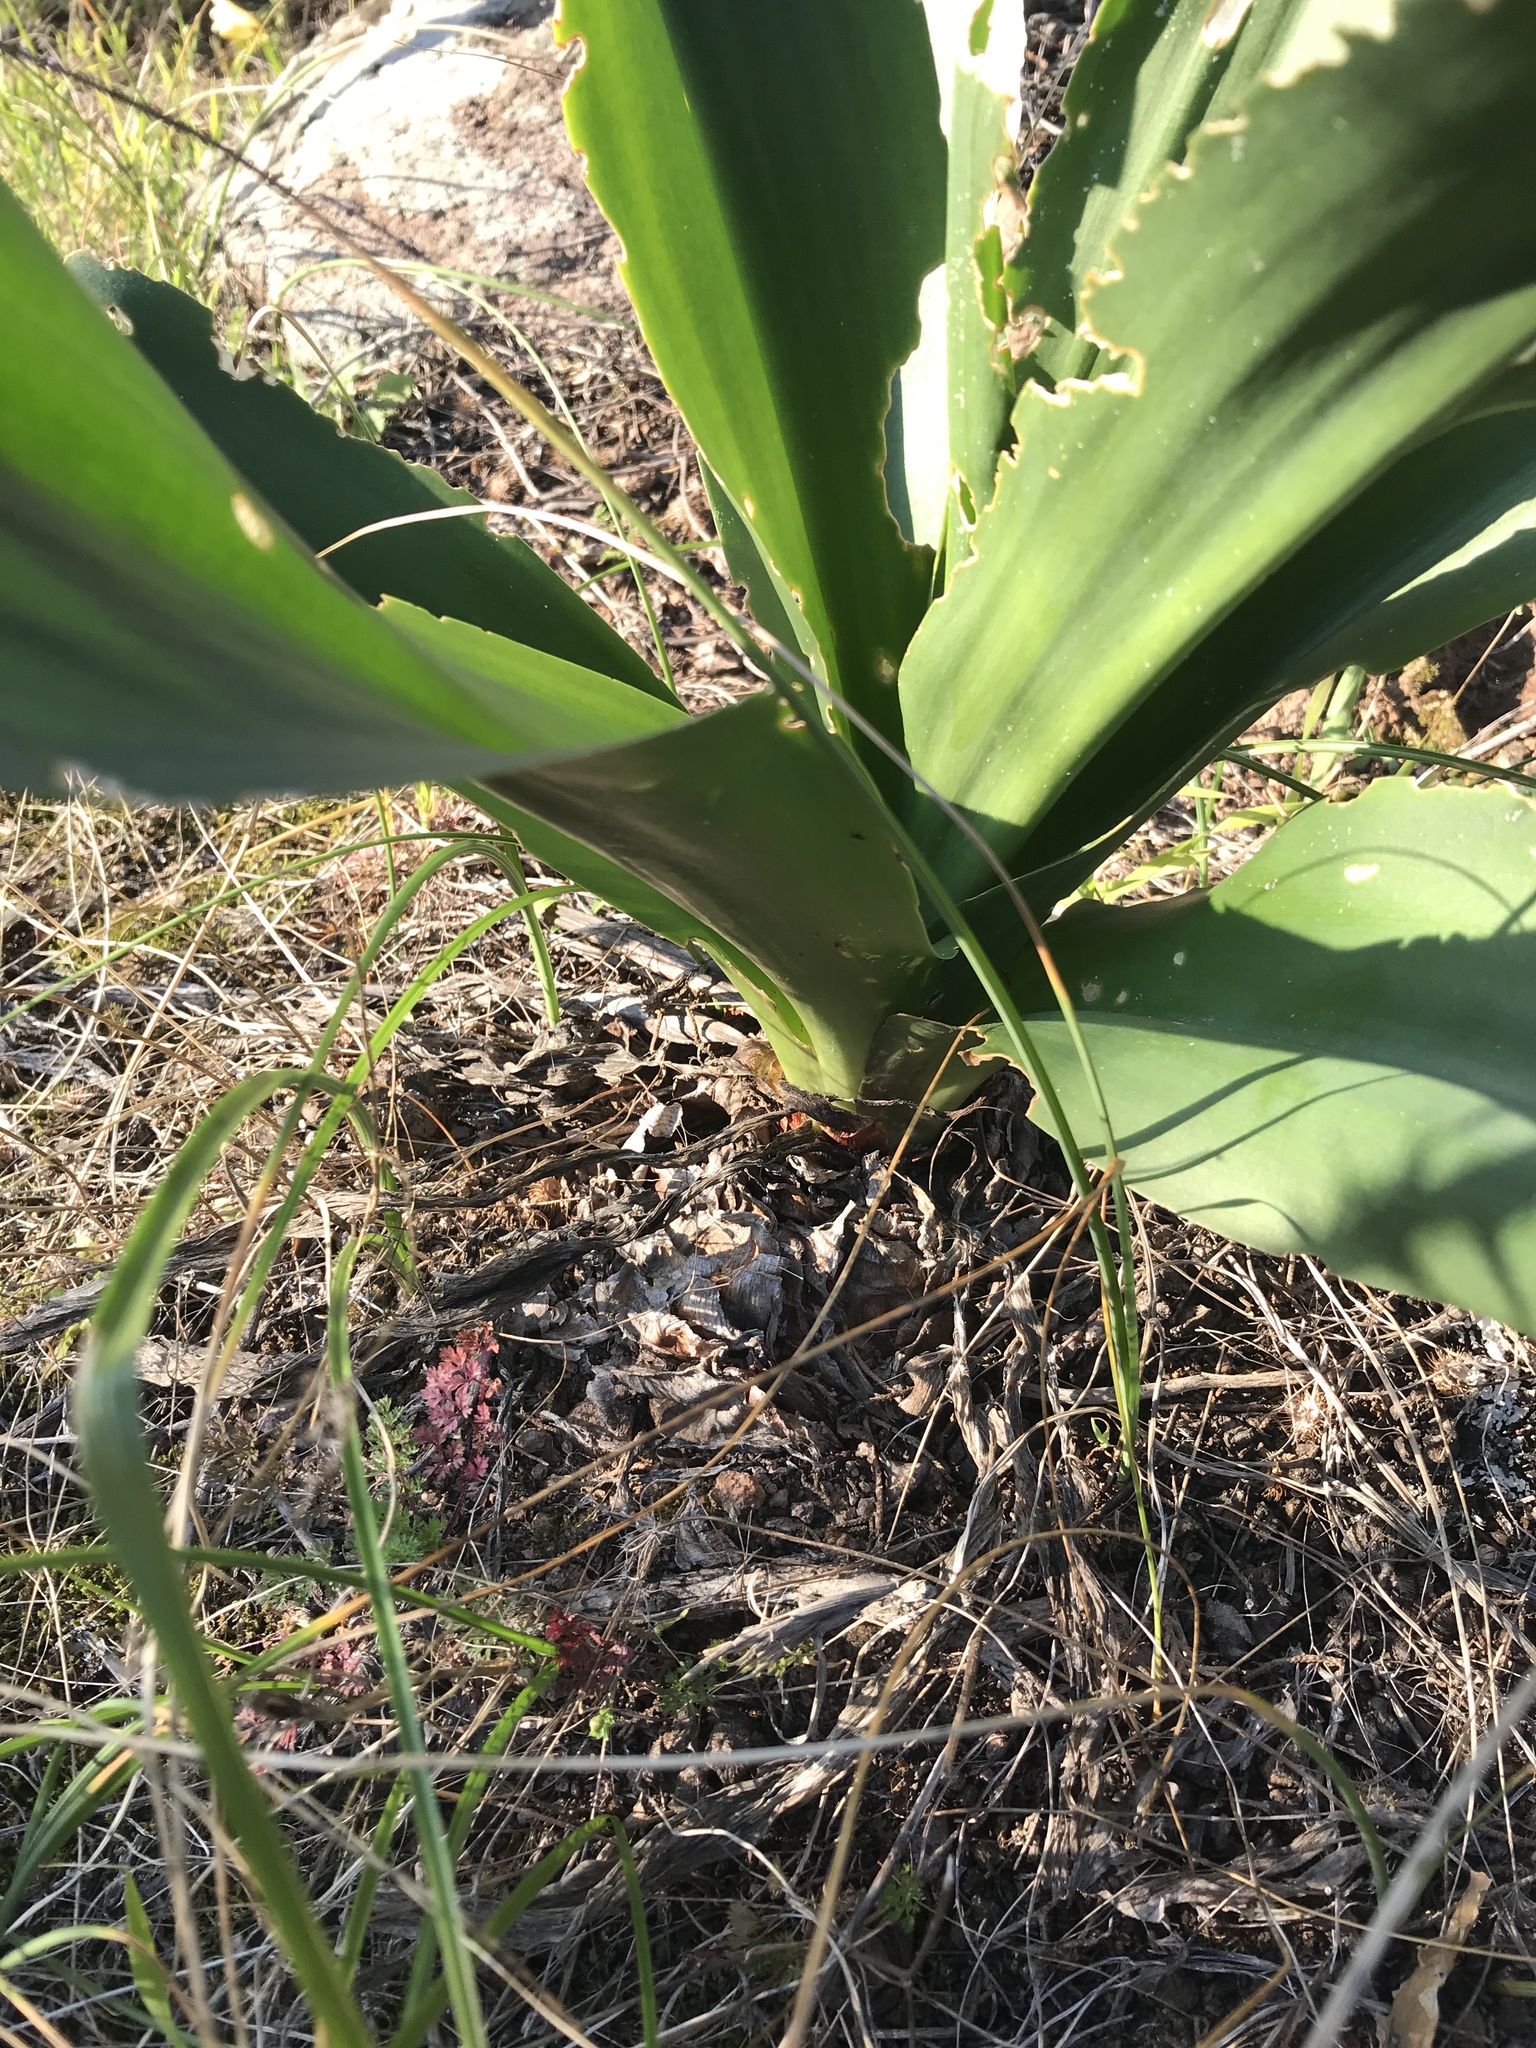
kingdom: Plantae
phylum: Tracheophyta
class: Liliopsida
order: Asparagales
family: Asparagaceae
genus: Drimia
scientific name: Drimia numidica
